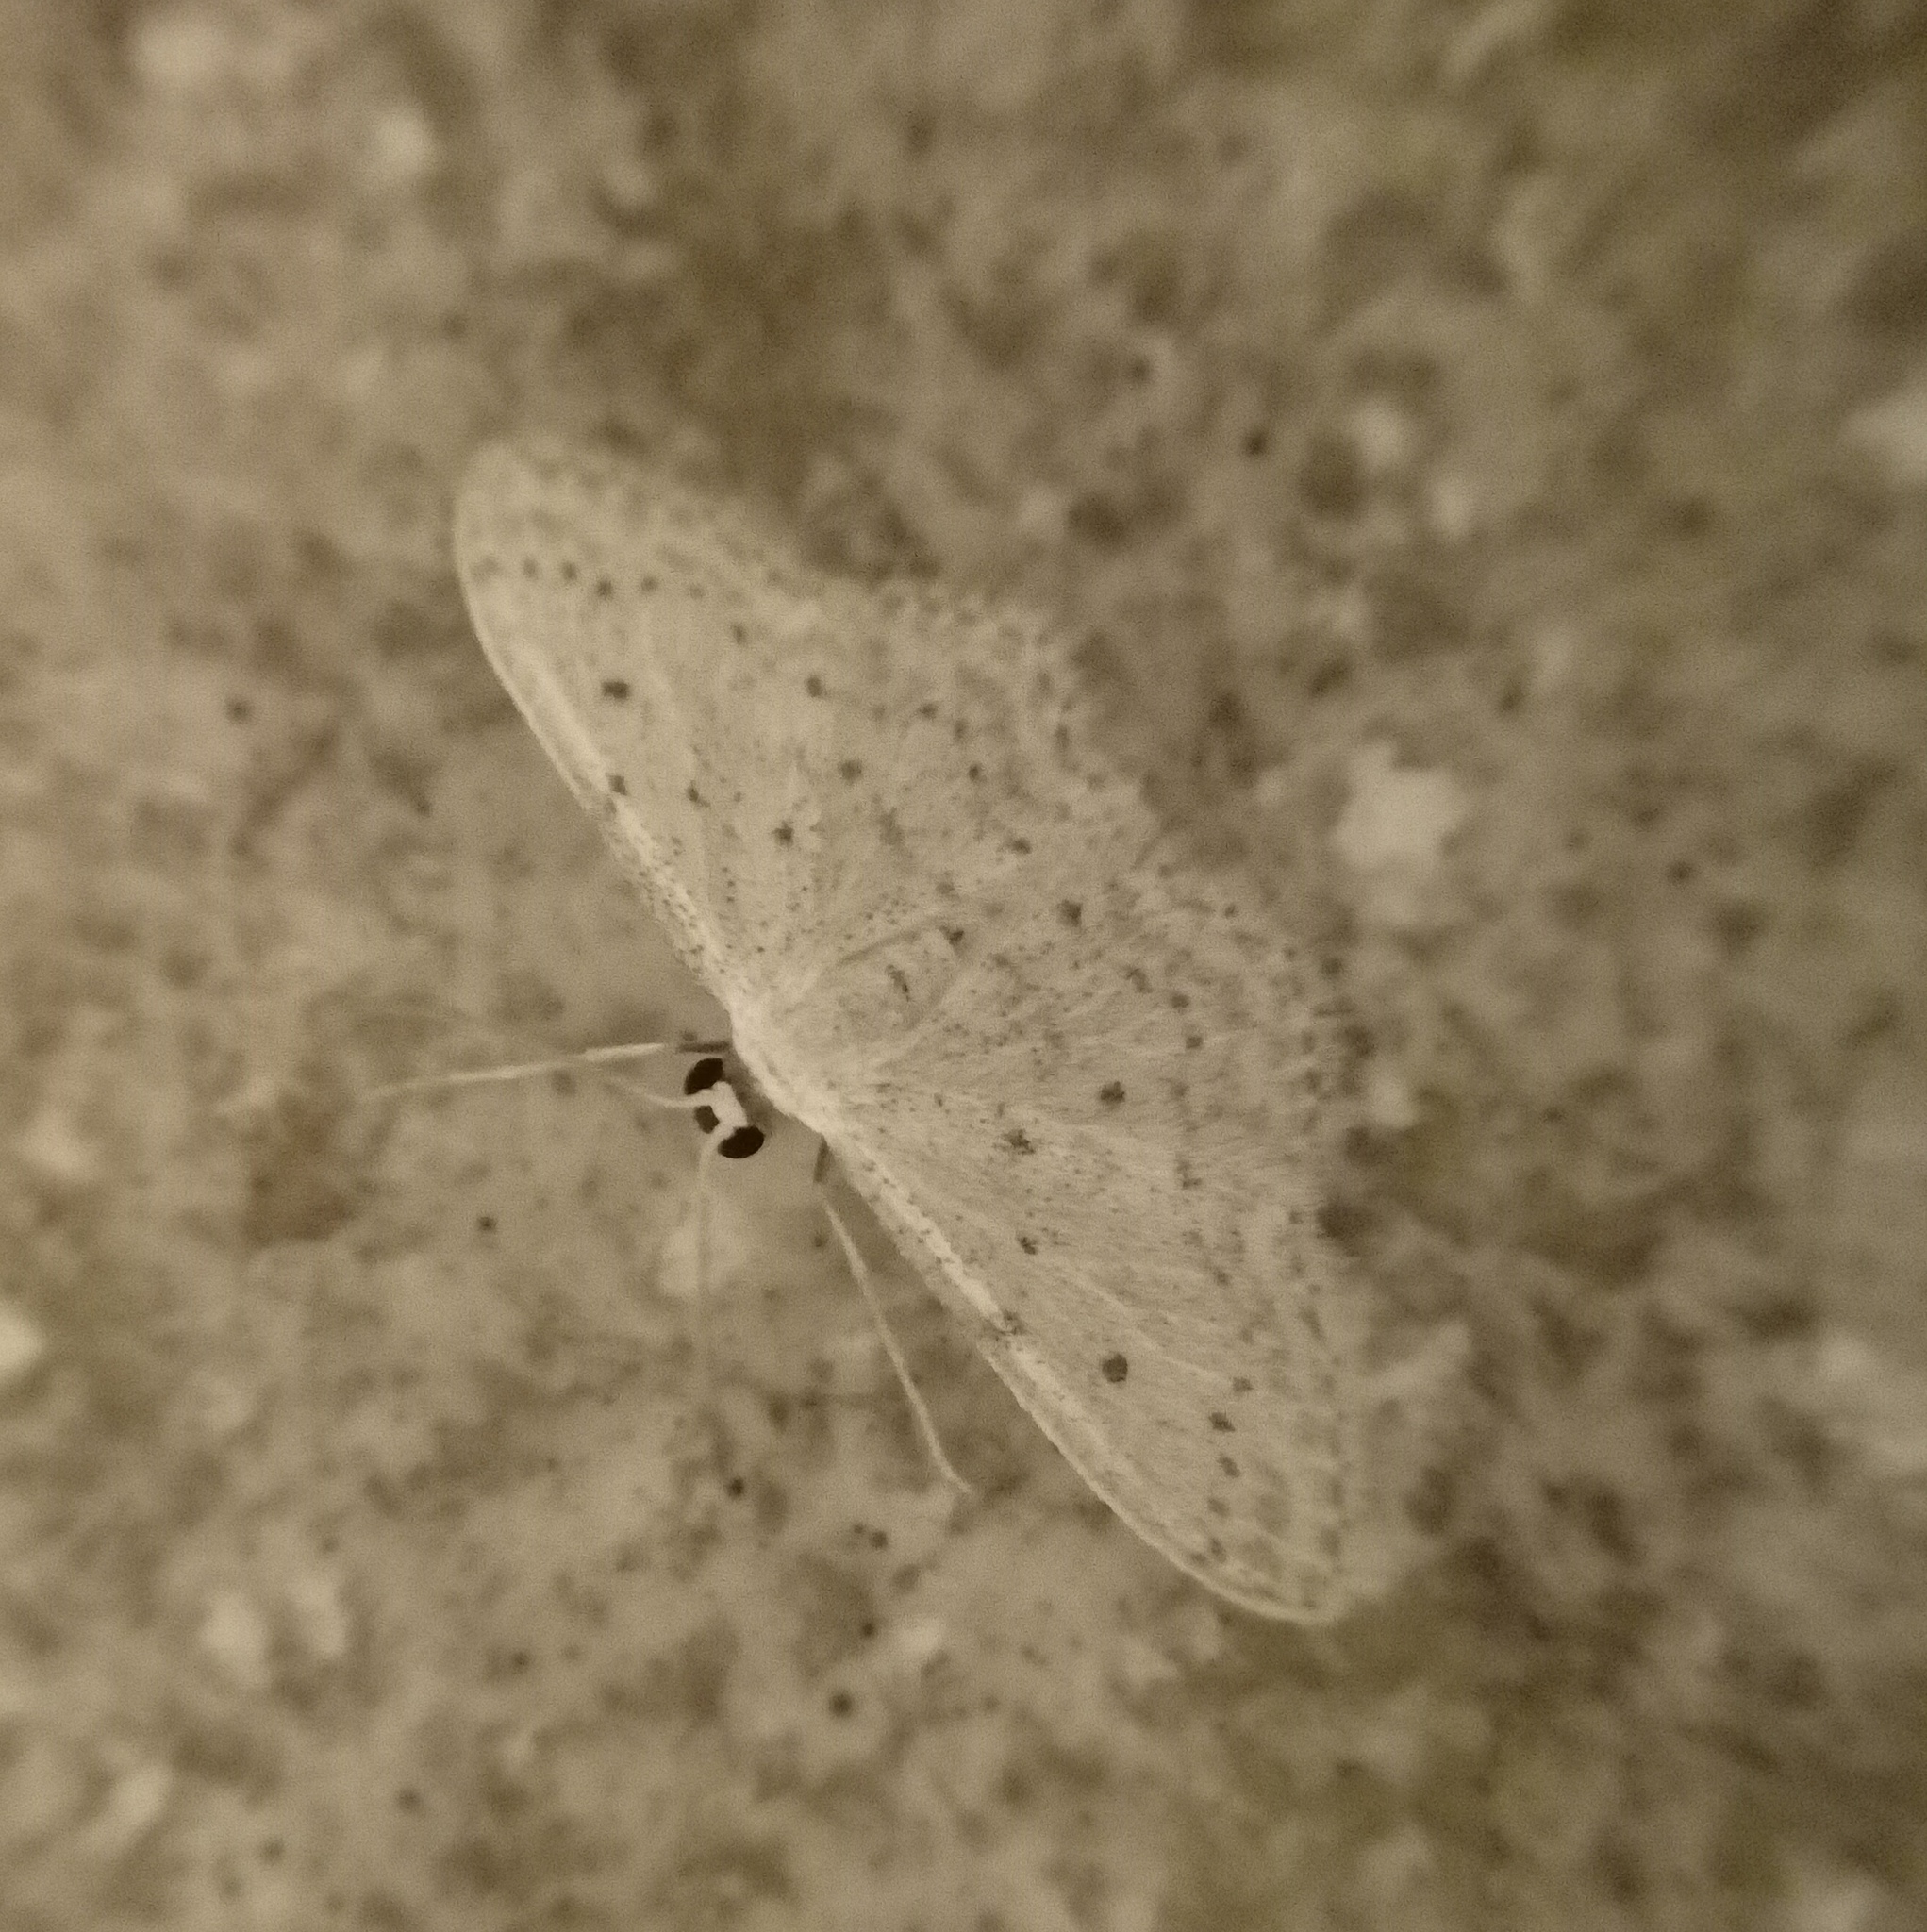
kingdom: Animalia
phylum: Arthropoda
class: Insecta
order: Lepidoptera
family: Geometridae
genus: Idaea
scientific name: Idaea seriata
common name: Small dusty wave
